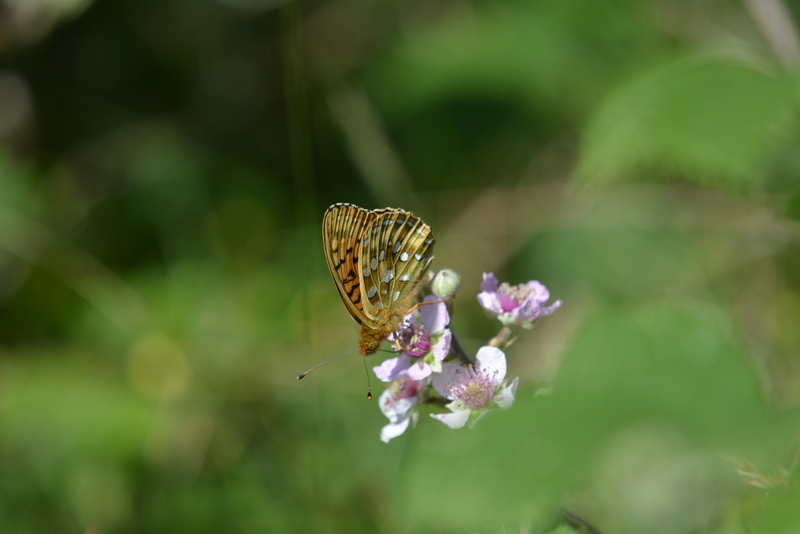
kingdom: Animalia
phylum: Arthropoda
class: Insecta
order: Lepidoptera
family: Nymphalidae
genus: Speyeria
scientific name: Speyeria aglaja
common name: Dark green fritillary
